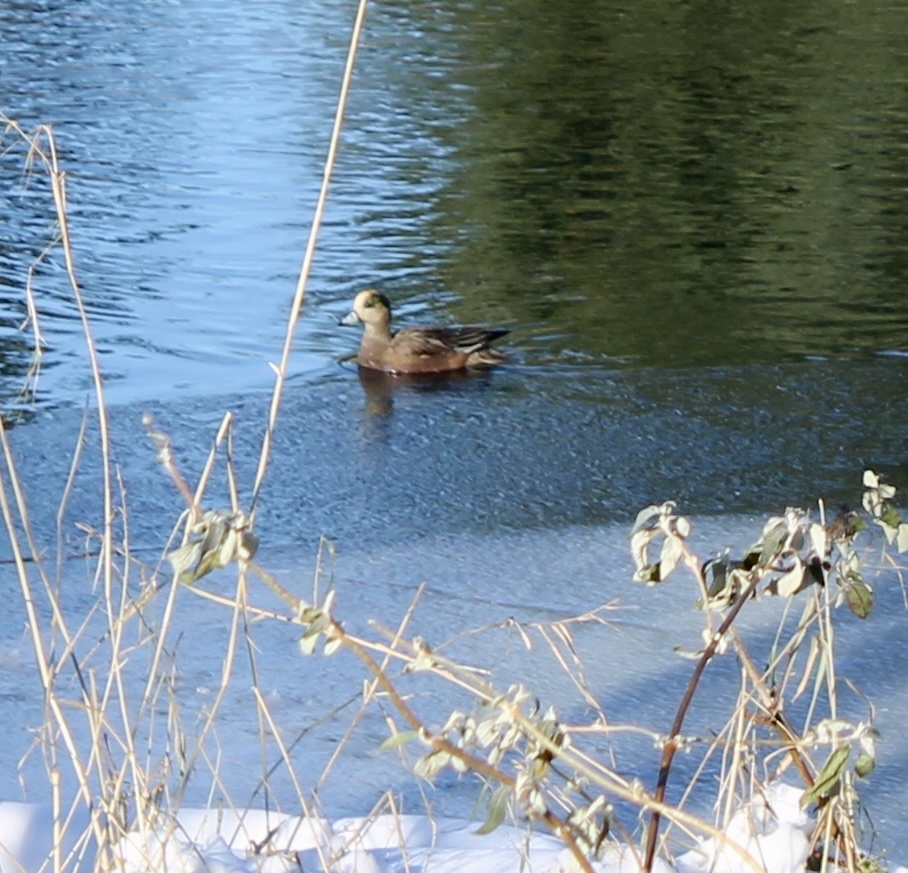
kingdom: Animalia
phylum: Chordata
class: Aves
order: Anseriformes
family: Anatidae
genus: Mareca
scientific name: Mareca americana
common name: American wigeon
